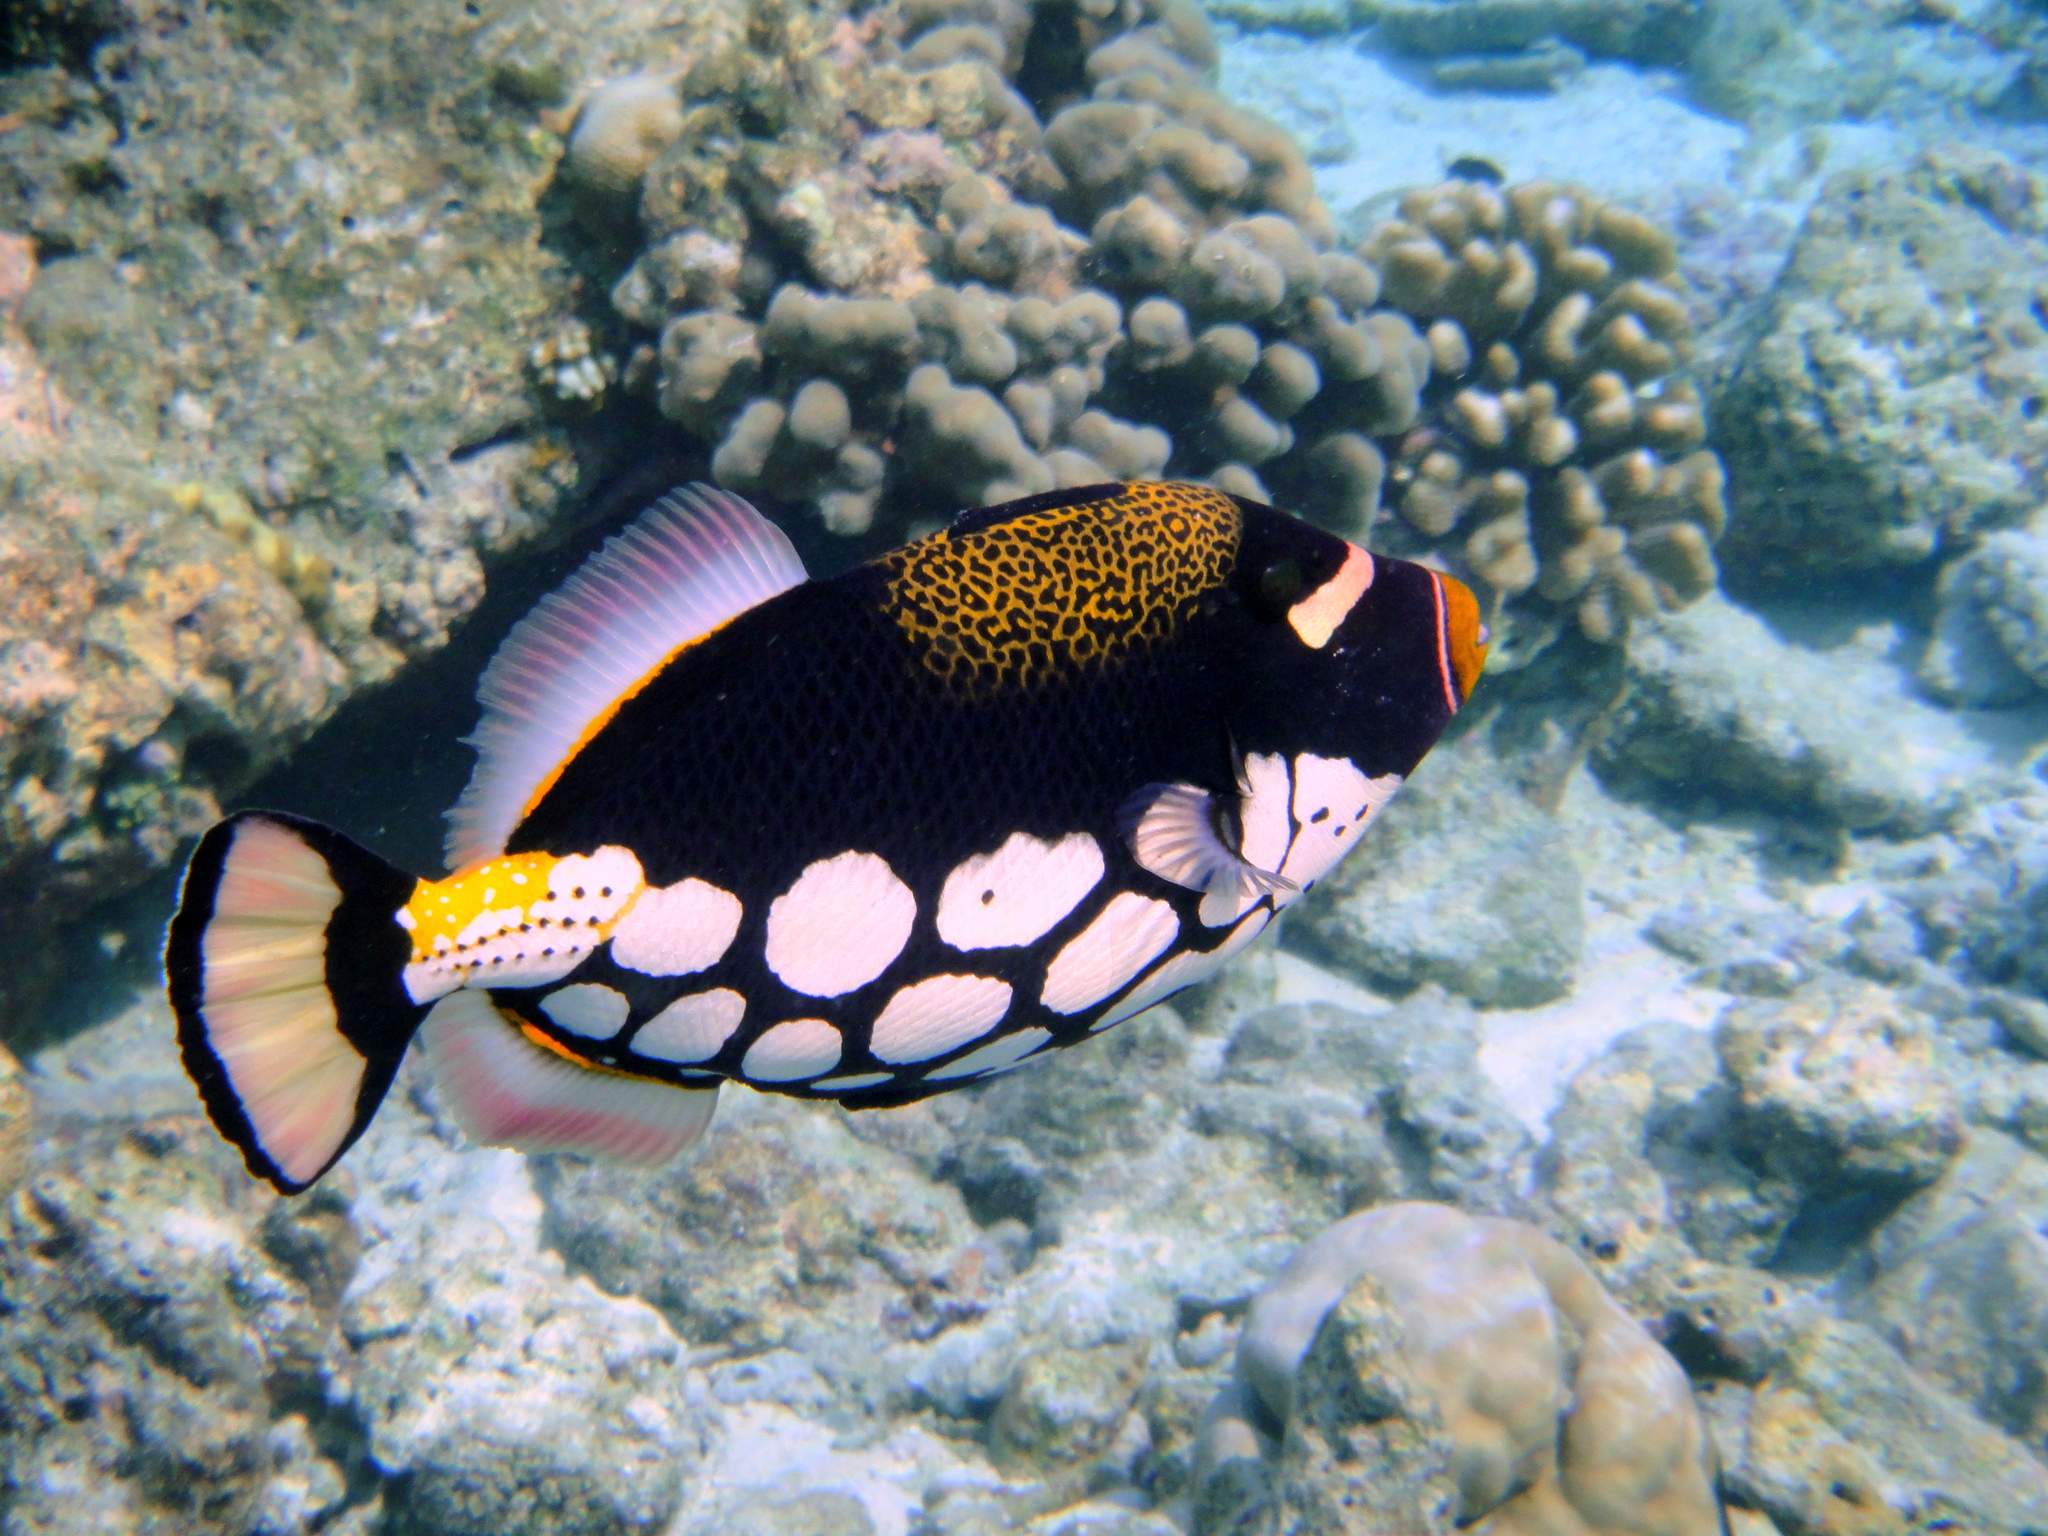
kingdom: Animalia
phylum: Chordata
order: Tetraodontiformes
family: Balistidae
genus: Balistoides
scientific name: Balistoides conspicillum
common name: Clown triggerfish
